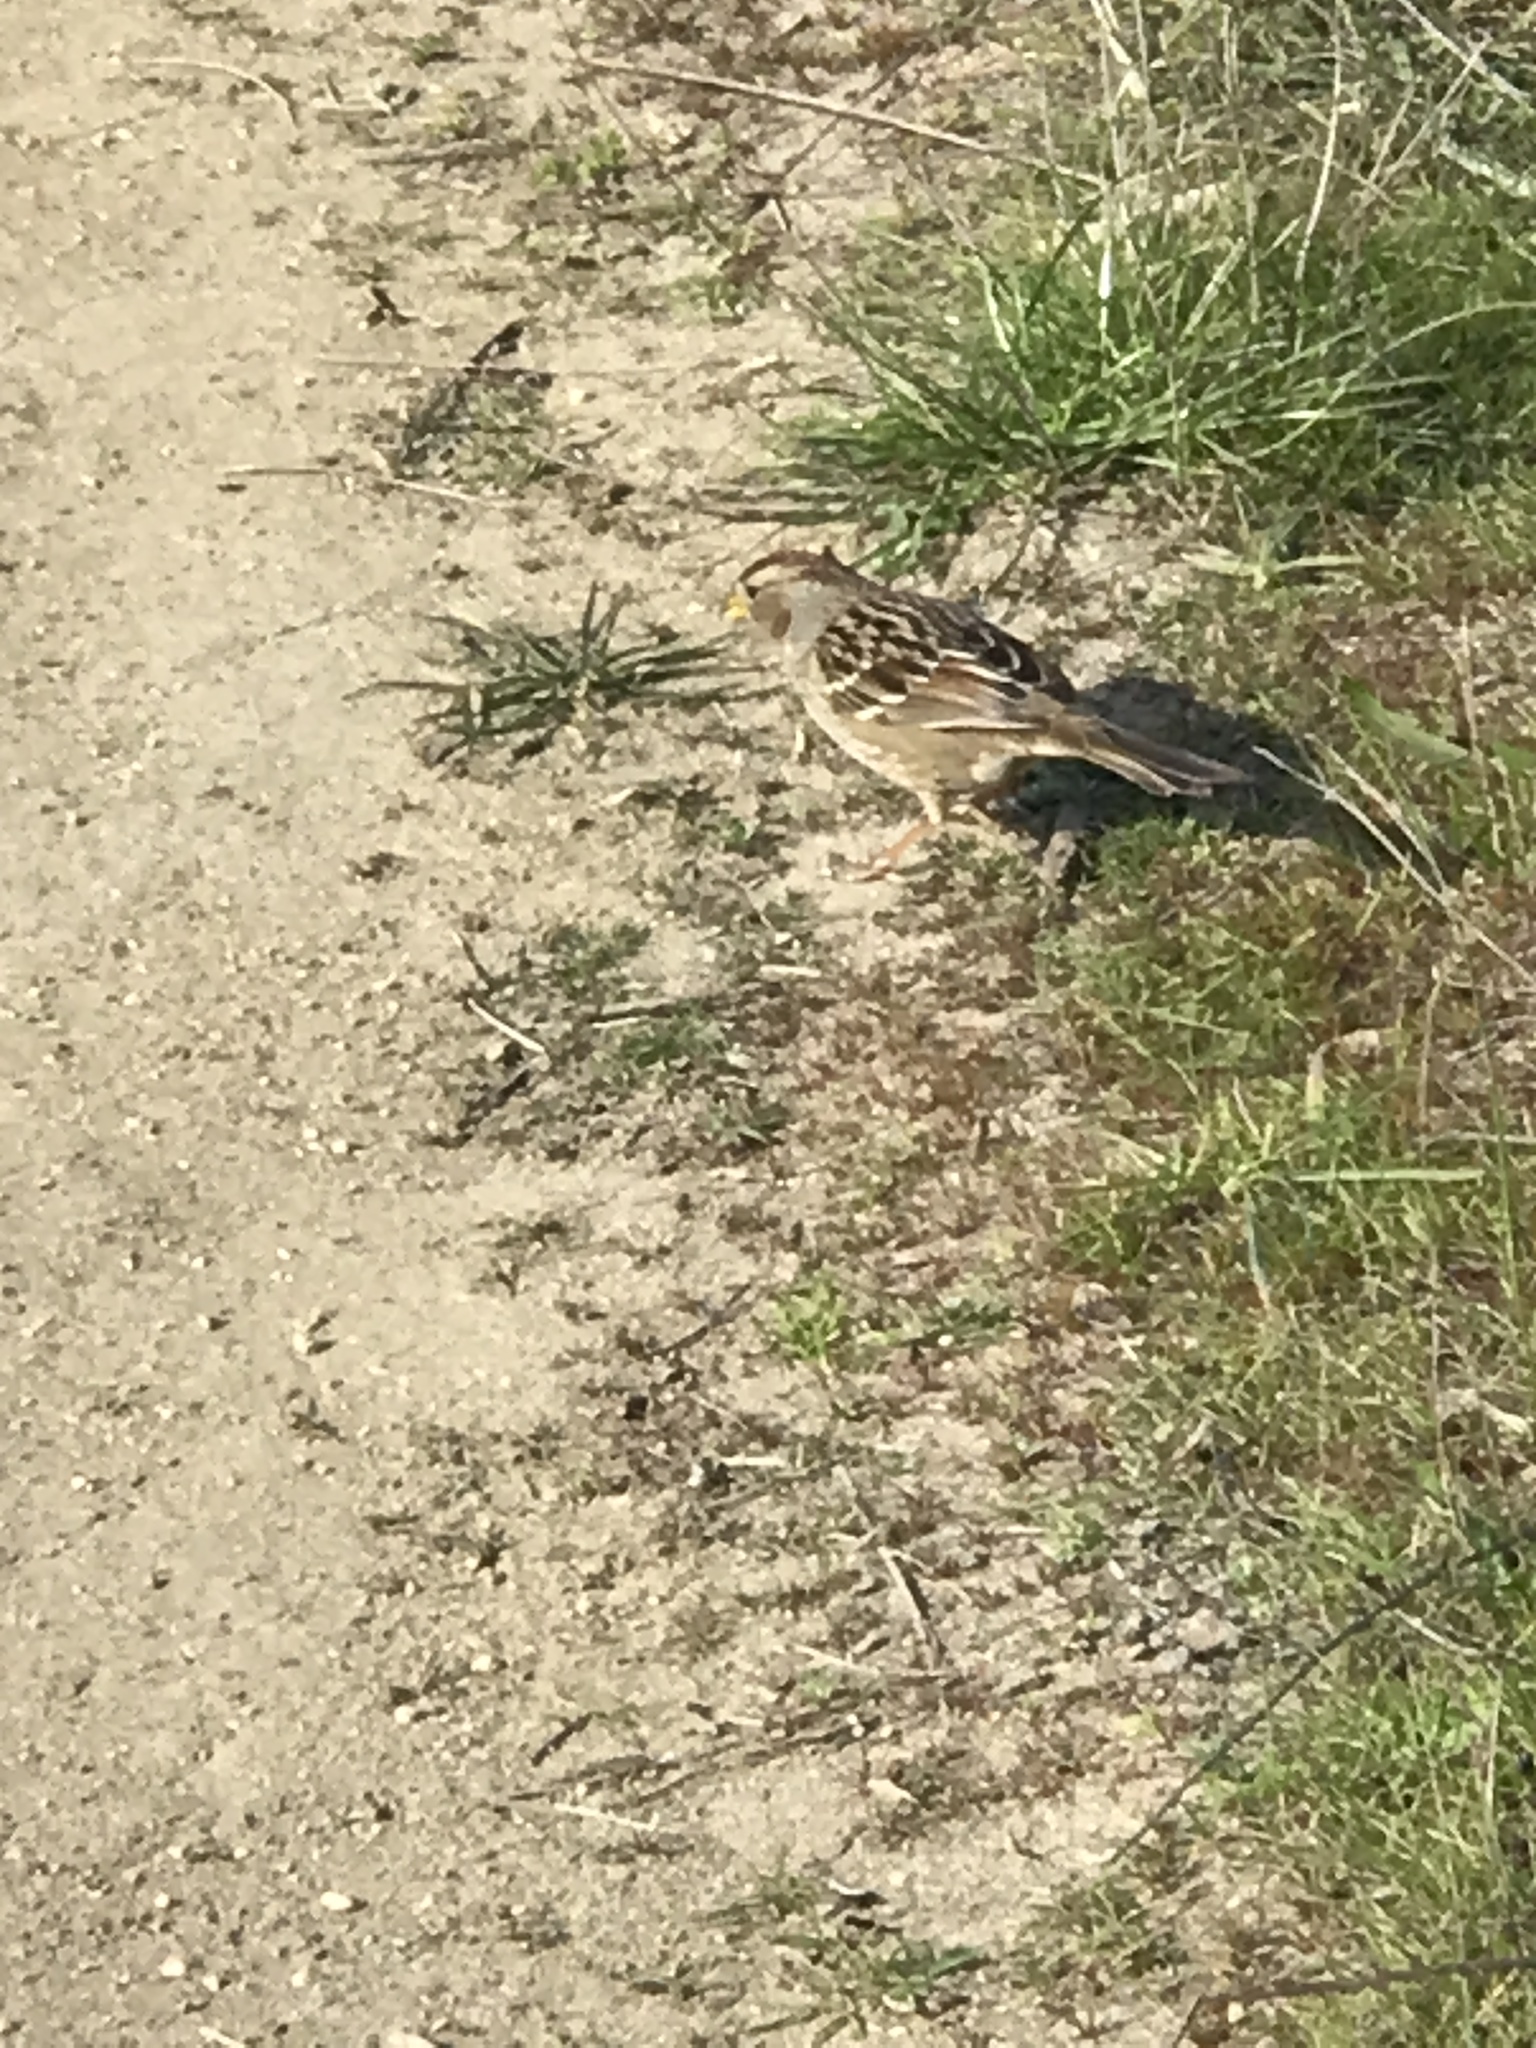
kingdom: Animalia
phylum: Chordata
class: Aves
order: Passeriformes
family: Passerellidae
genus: Zonotrichia
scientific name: Zonotrichia leucophrys
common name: White-crowned sparrow
